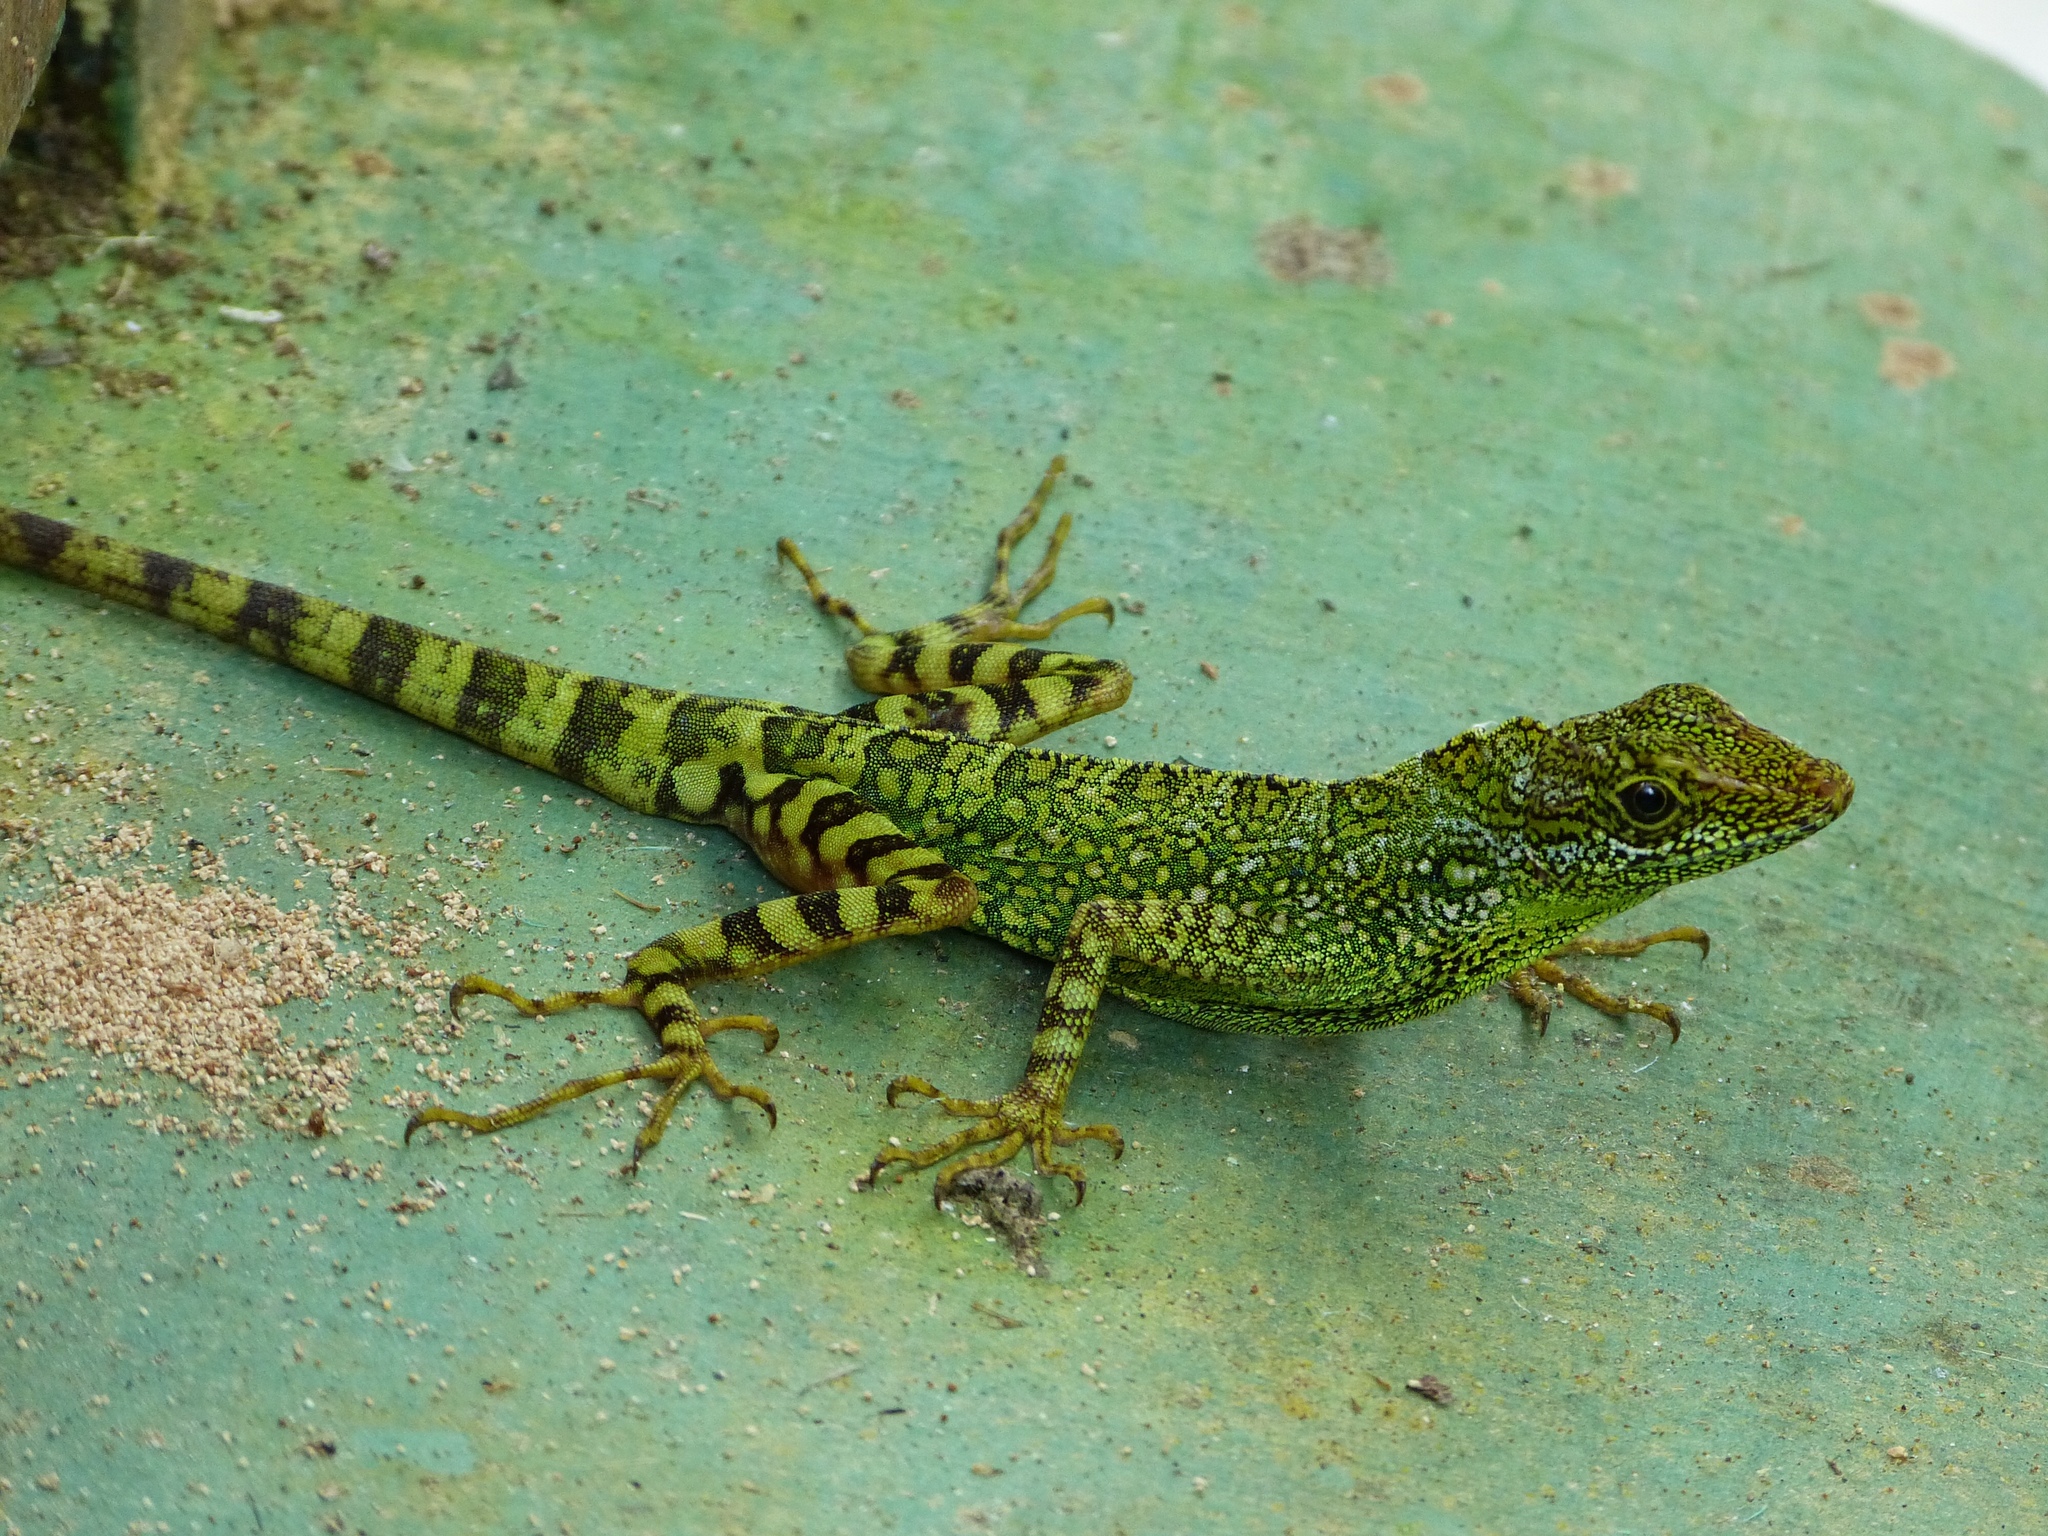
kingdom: Animalia
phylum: Chordata
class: Squamata
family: Dactyloidae
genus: Anolis
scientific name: Anolis aequatorialis
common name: Equatorial anole
